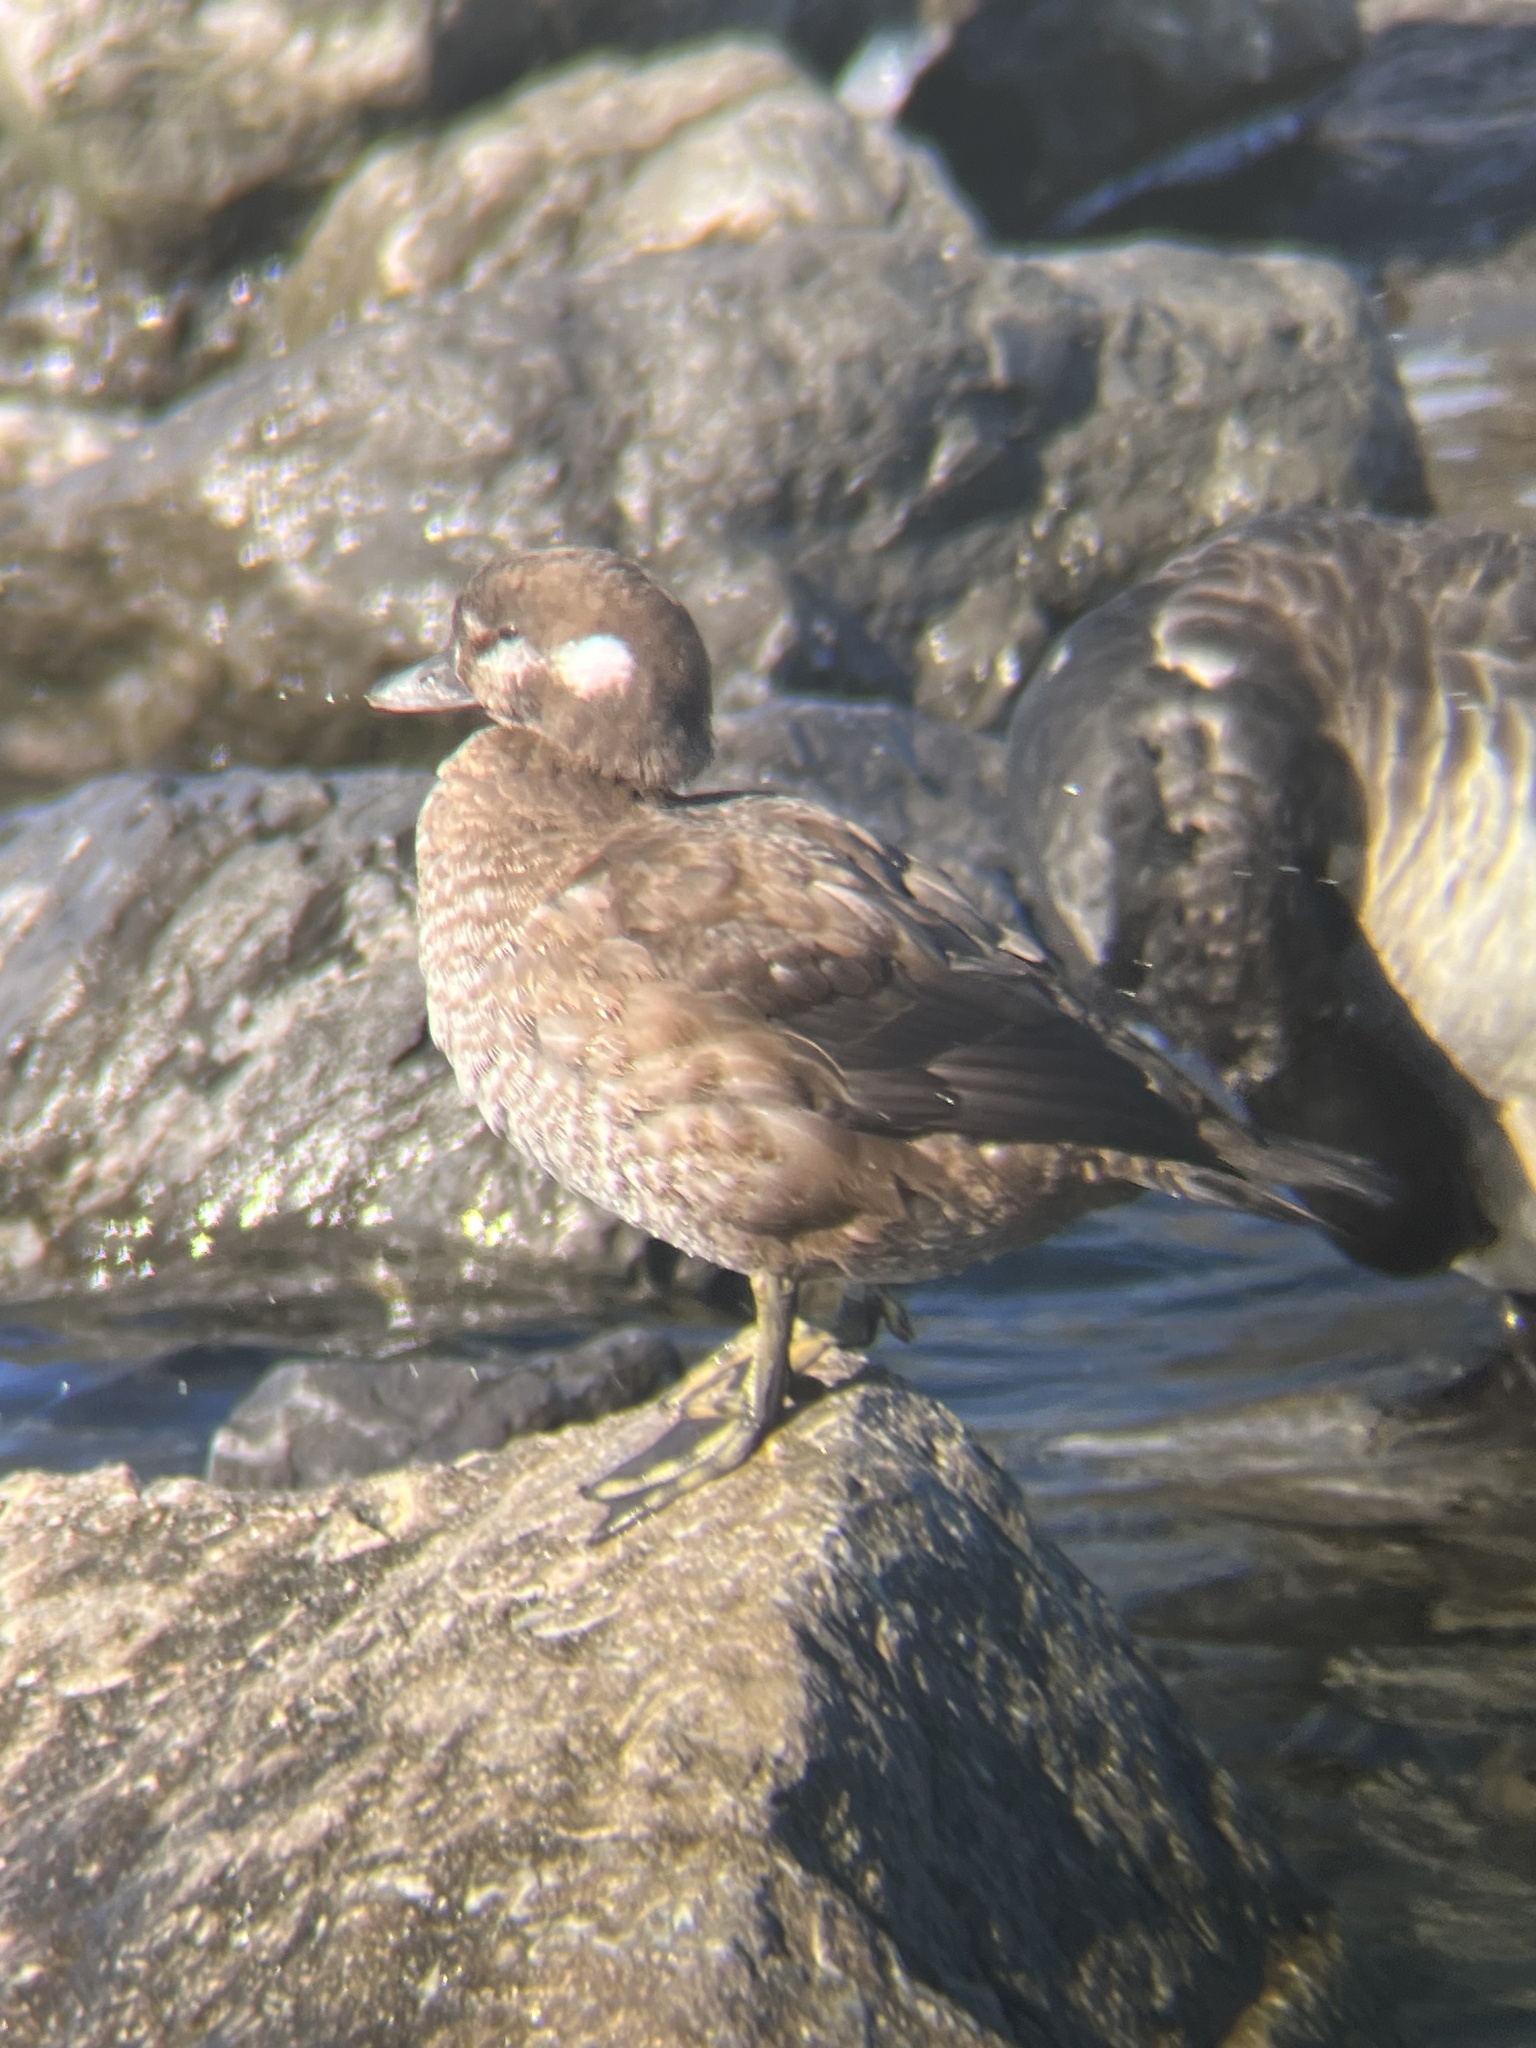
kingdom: Animalia
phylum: Chordata
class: Aves
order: Anseriformes
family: Anatidae
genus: Histrionicus
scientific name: Histrionicus histrionicus
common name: Harlequin duck
